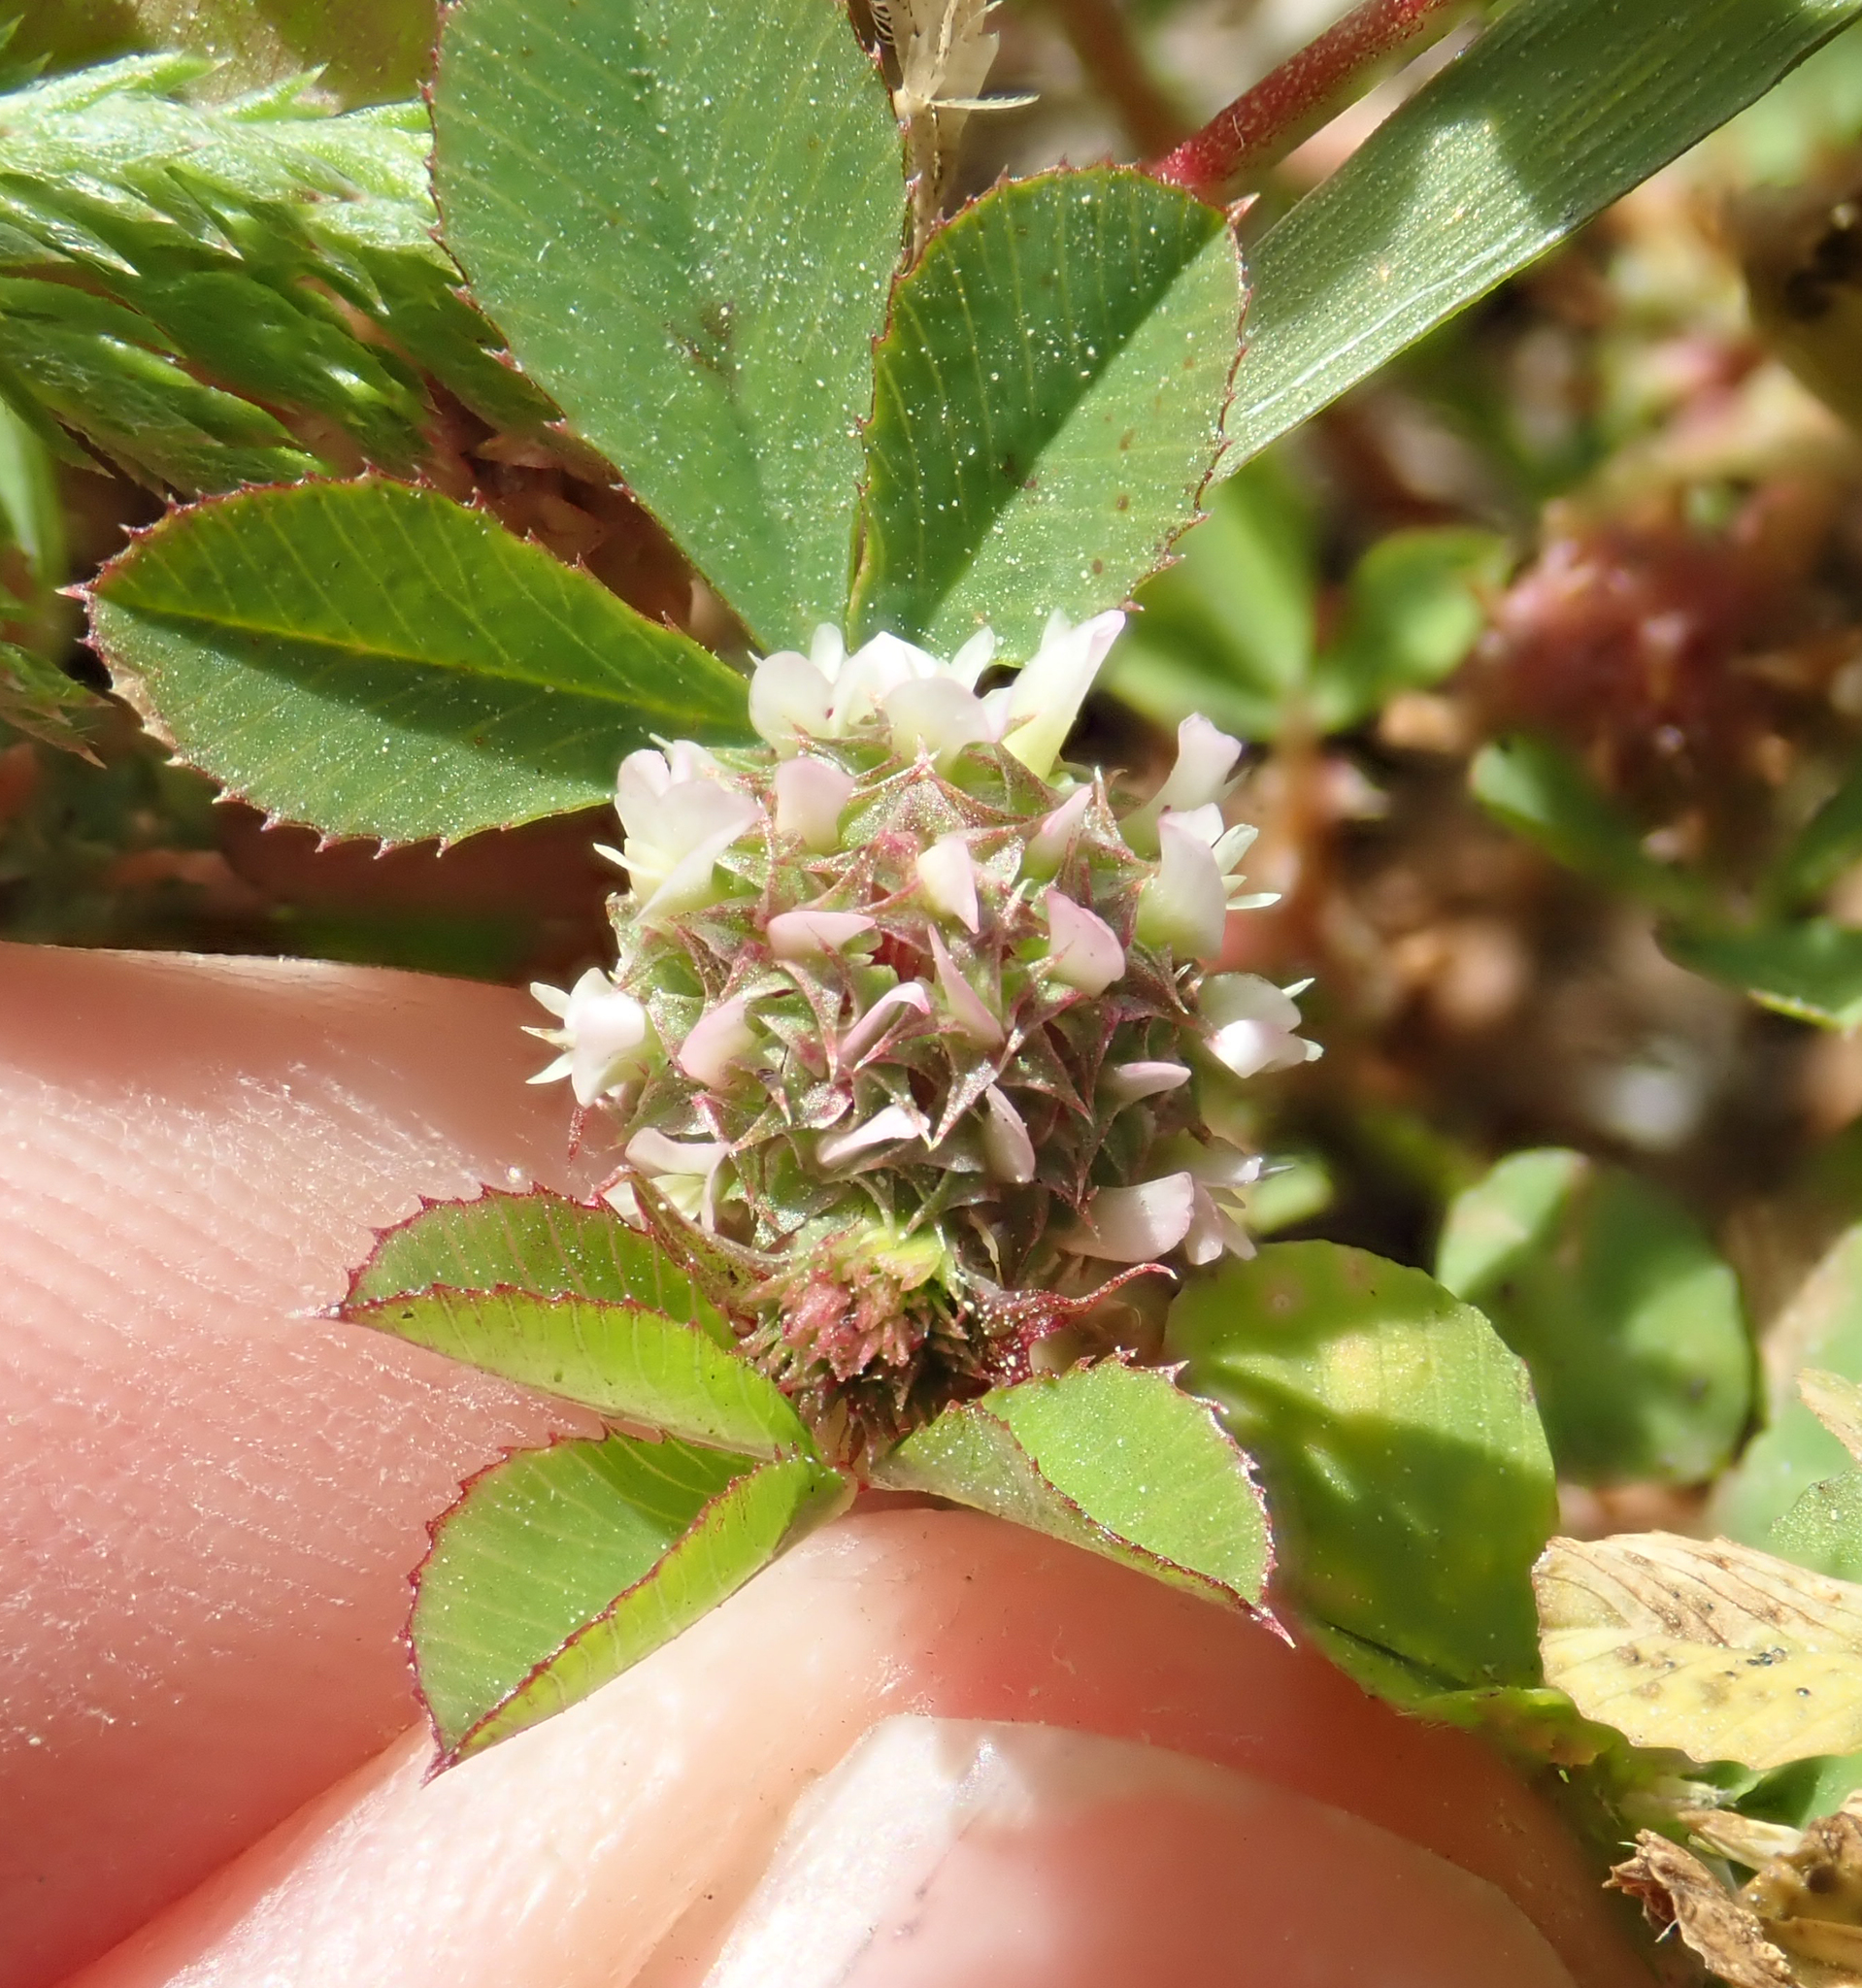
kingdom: Plantae
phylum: Tracheophyta
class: Magnoliopsida
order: Fabales
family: Fabaceae
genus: Trifolium
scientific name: Trifolium glomeratum
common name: Clustered clover
